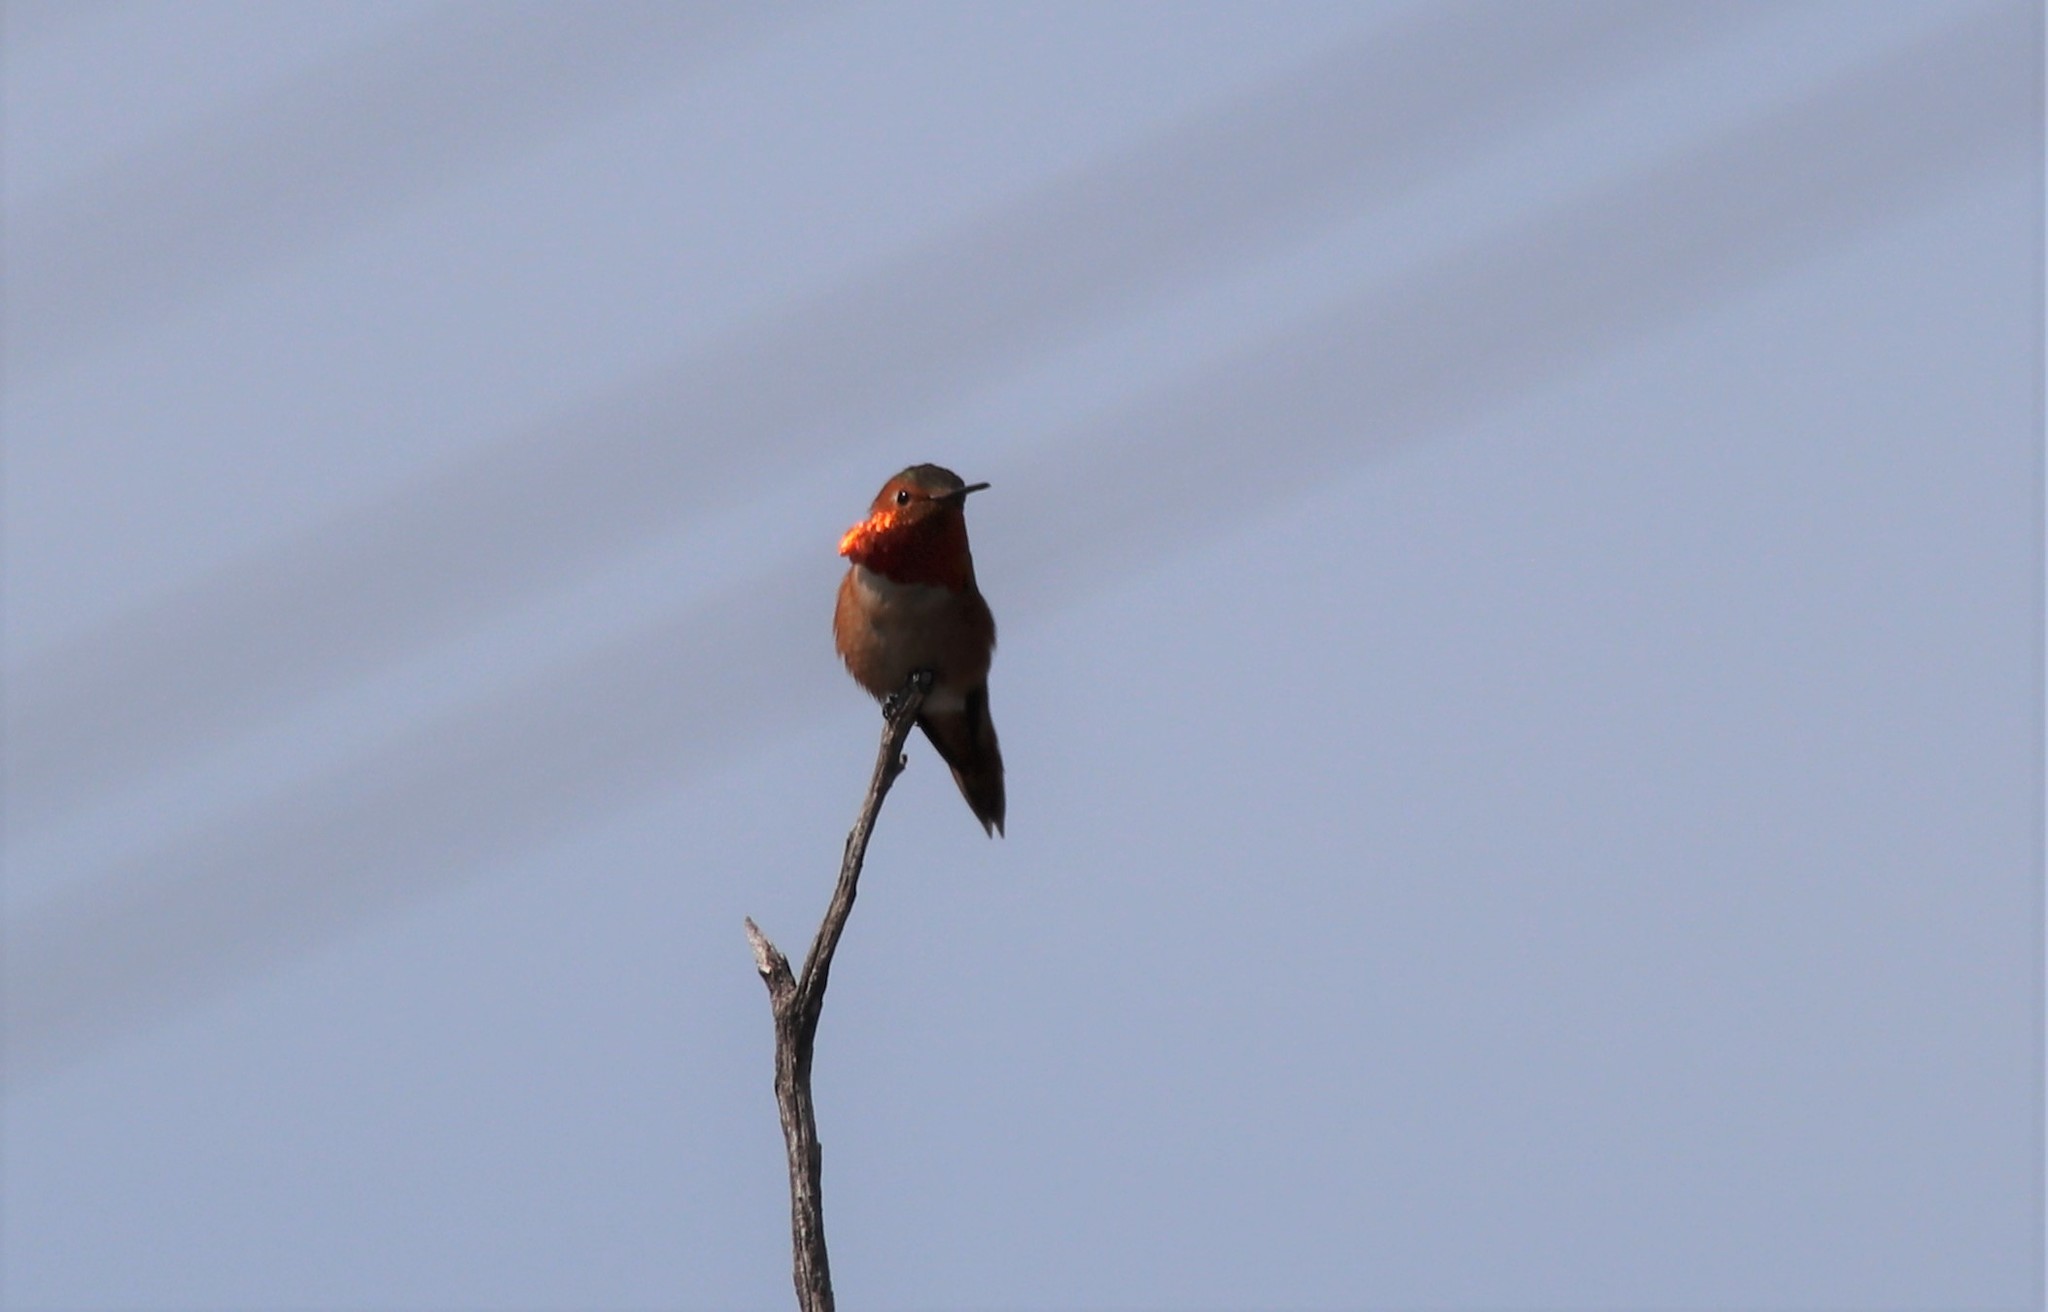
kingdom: Animalia
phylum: Chordata
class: Aves
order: Apodiformes
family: Trochilidae
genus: Selasphorus
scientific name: Selasphorus sasin
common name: Allen's hummingbird
